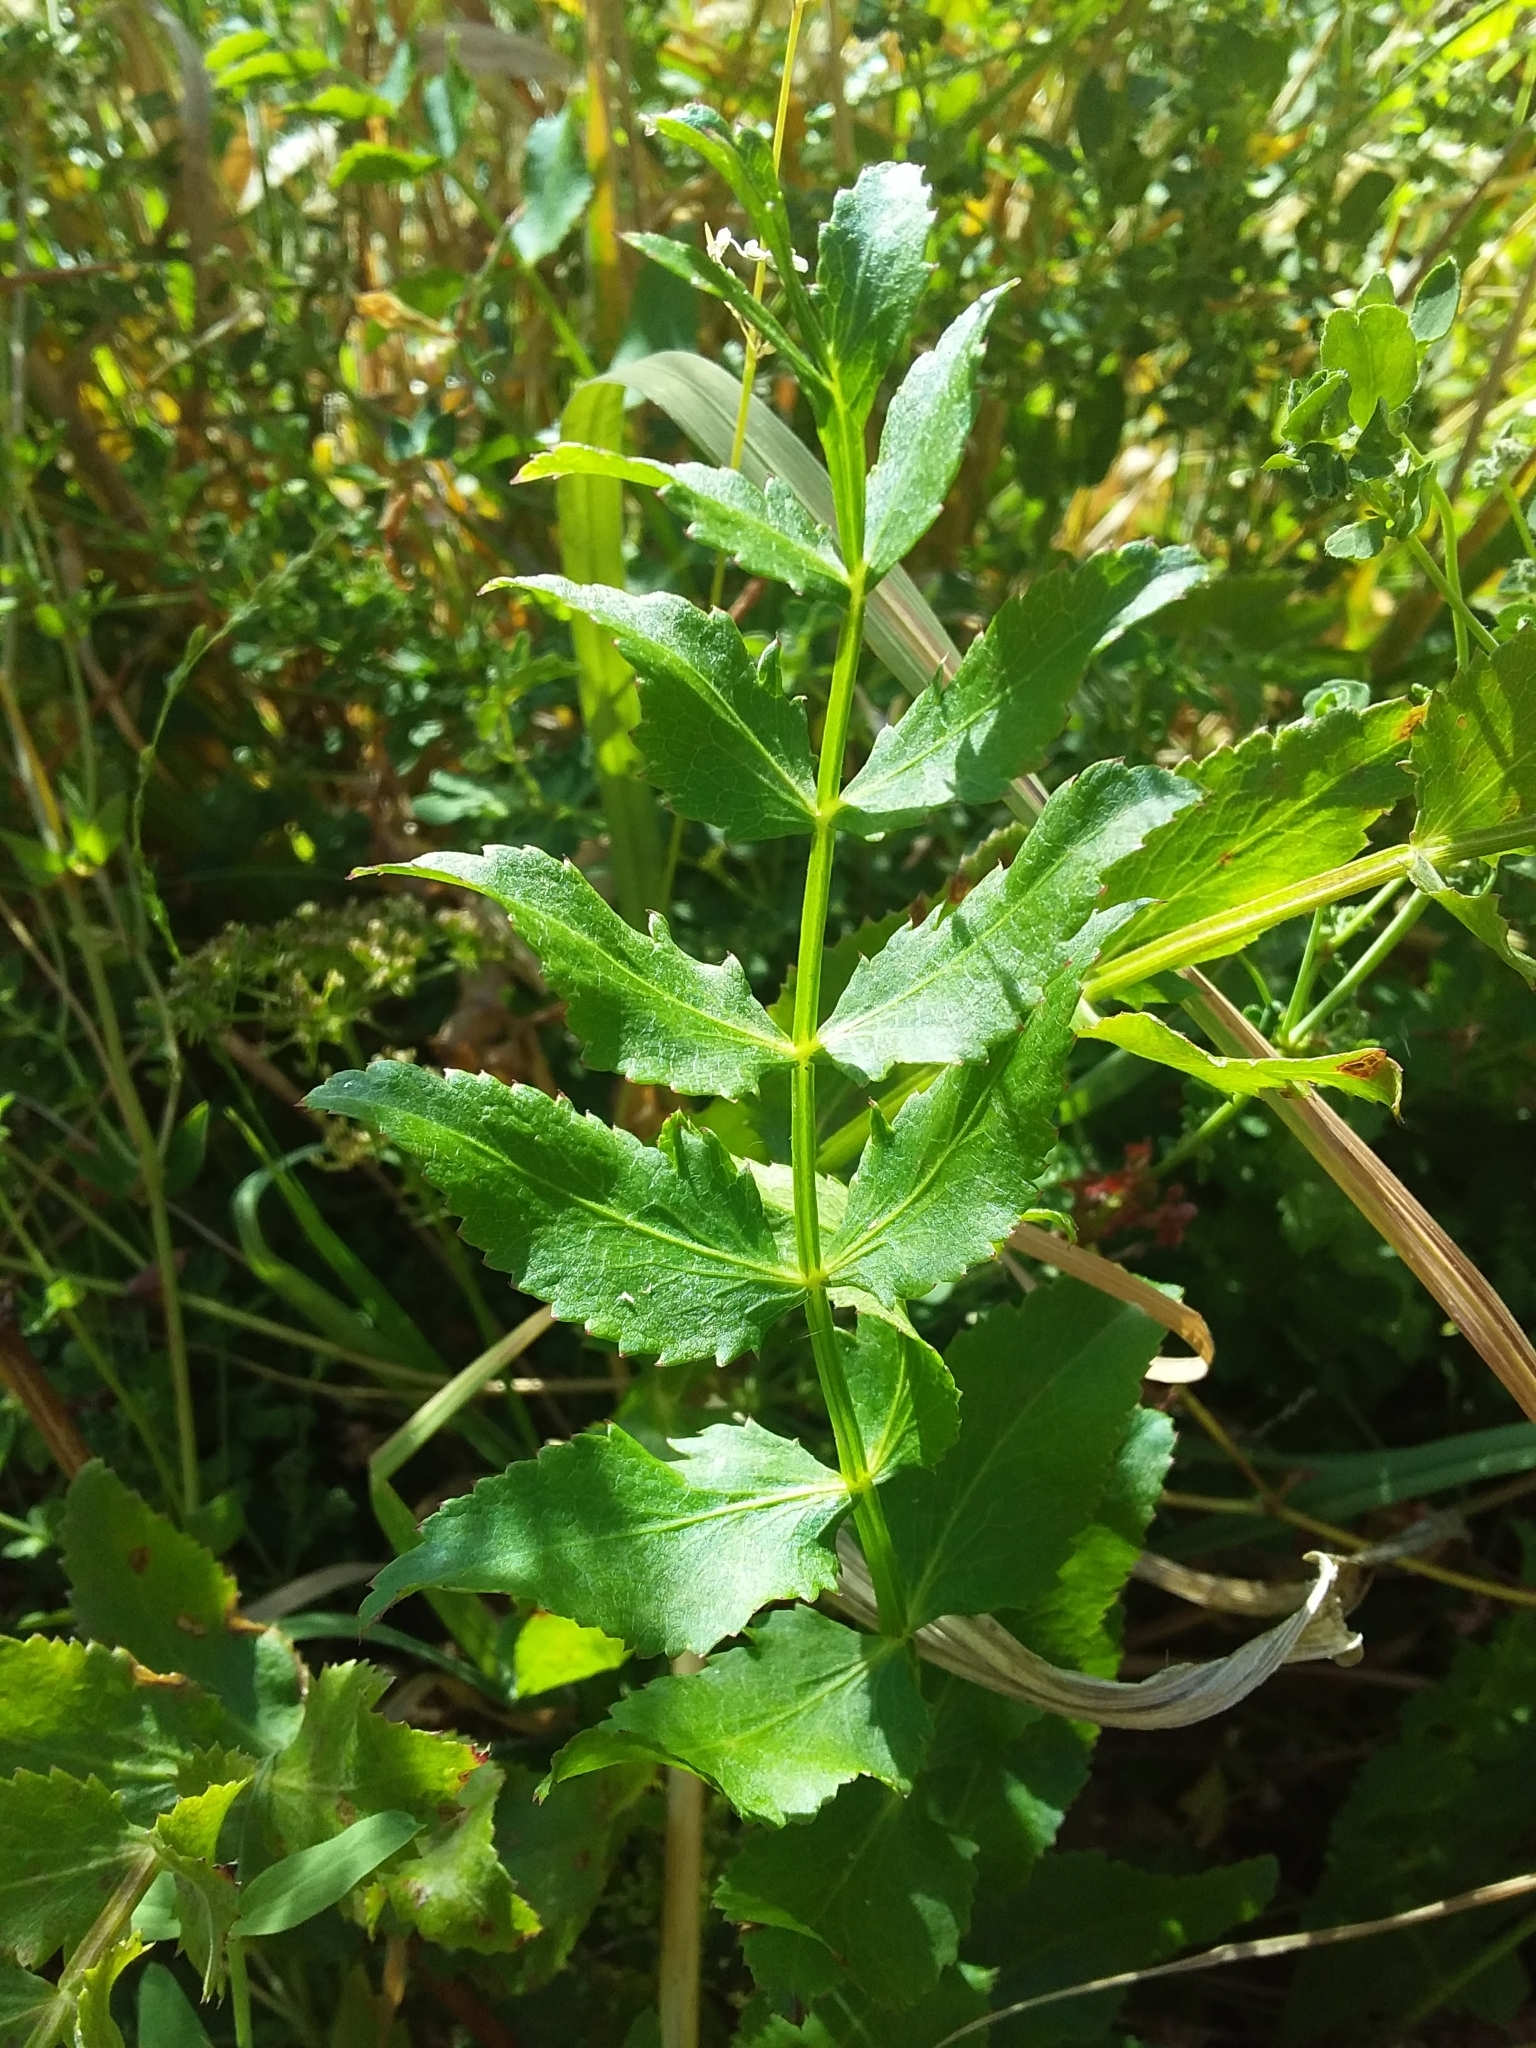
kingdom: Plantae
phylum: Tracheophyta
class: Magnoliopsida
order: Apiales
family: Apiaceae
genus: Berula
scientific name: Berula erecta
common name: Lesser water-parsnip
